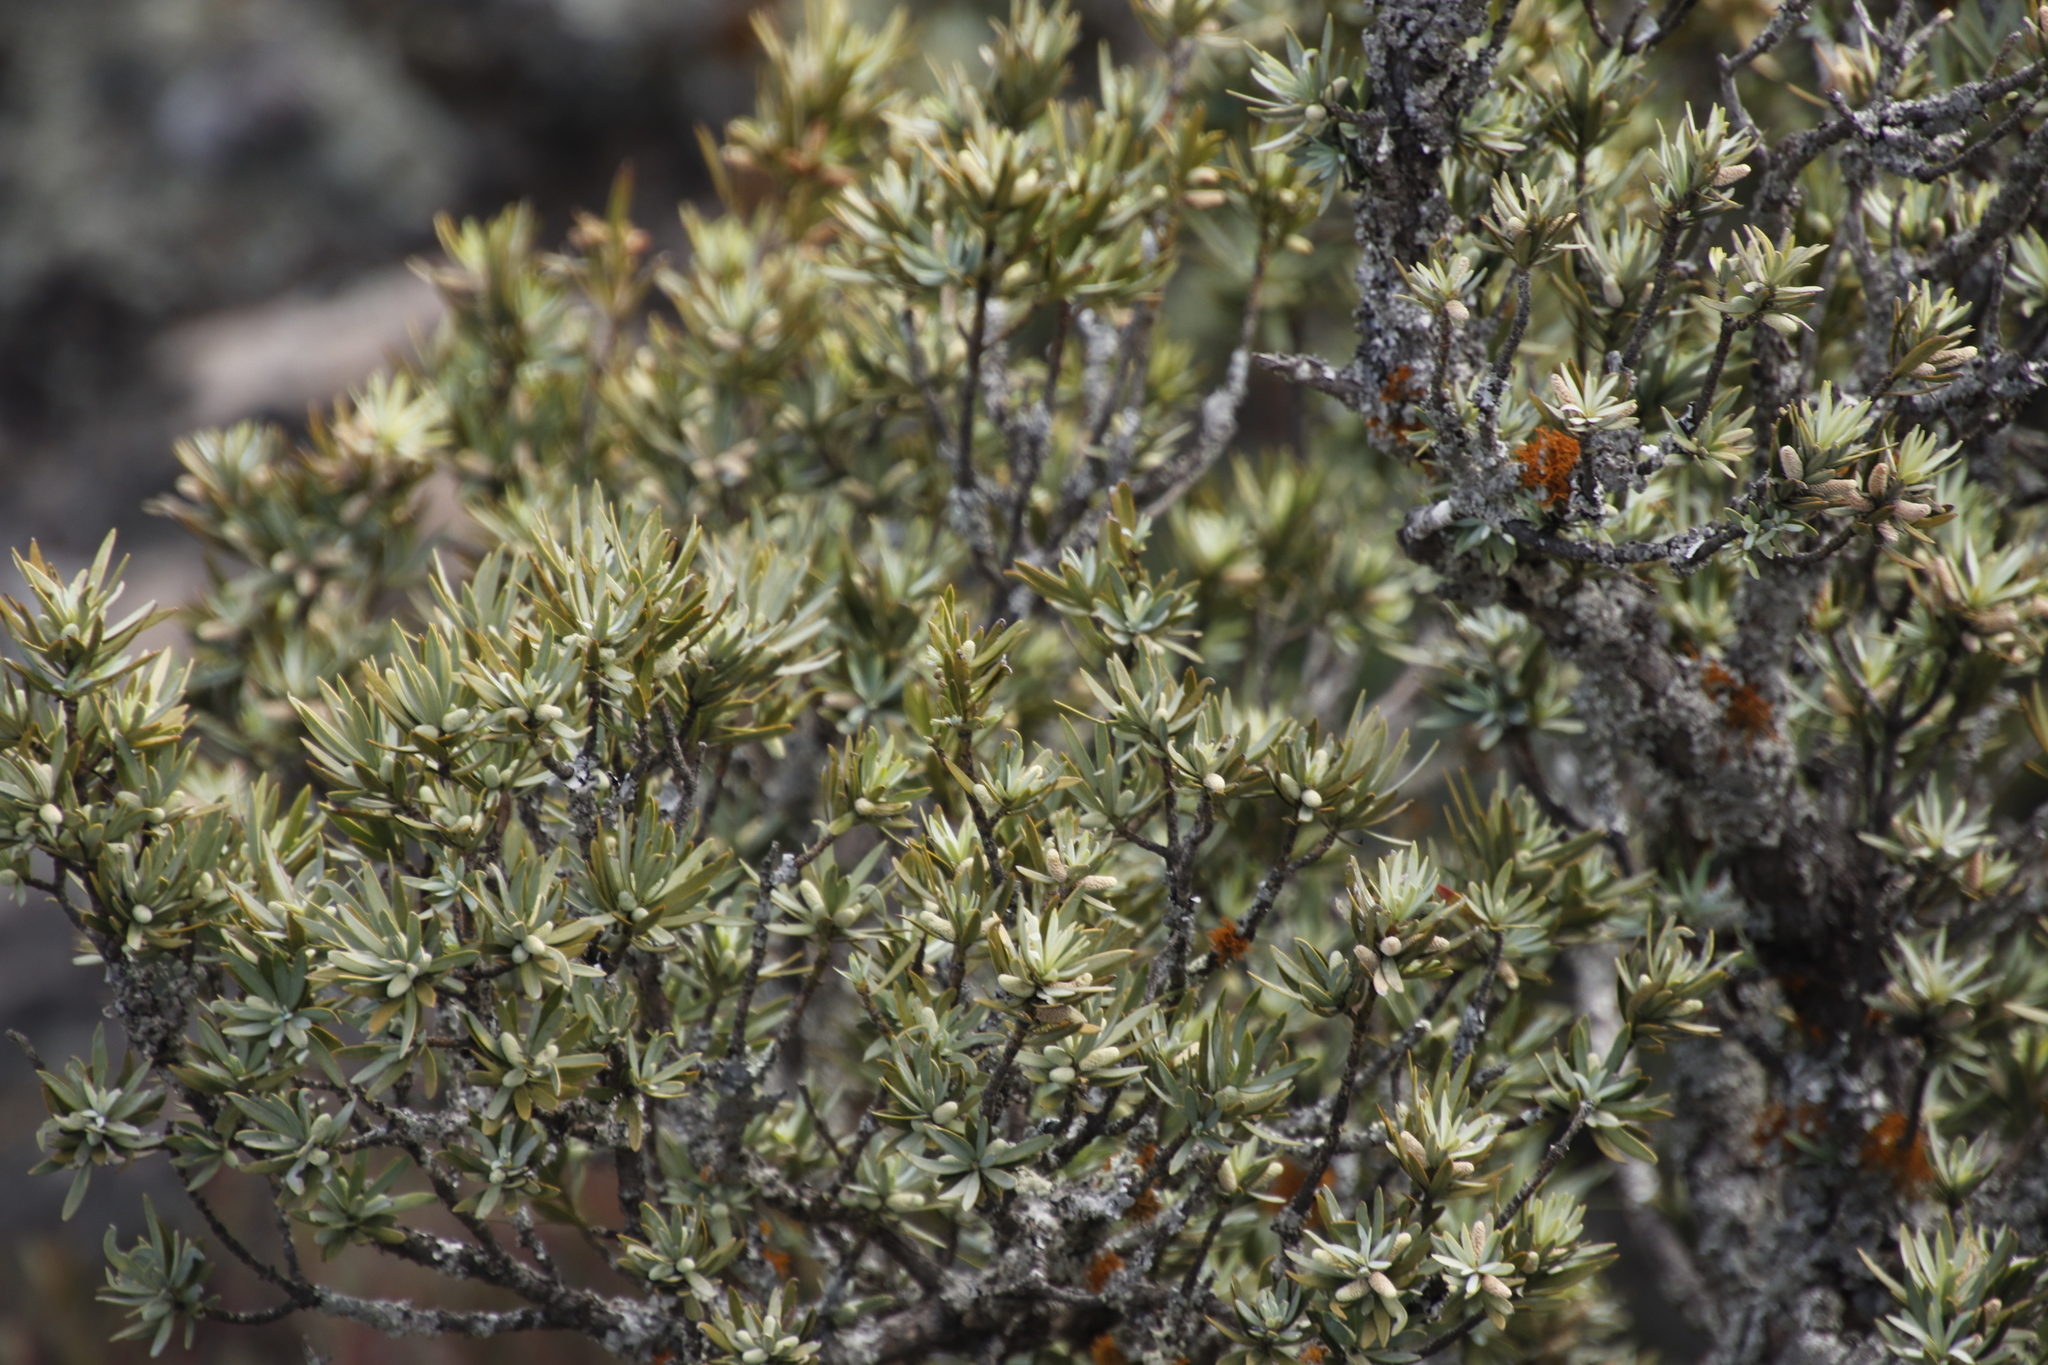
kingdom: Plantae
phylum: Tracheophyta
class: Pinopsida
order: Pinales
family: Podocarpaceae
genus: Podocarpus
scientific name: Podocarpus elongatus
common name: Breede river yellowwood
